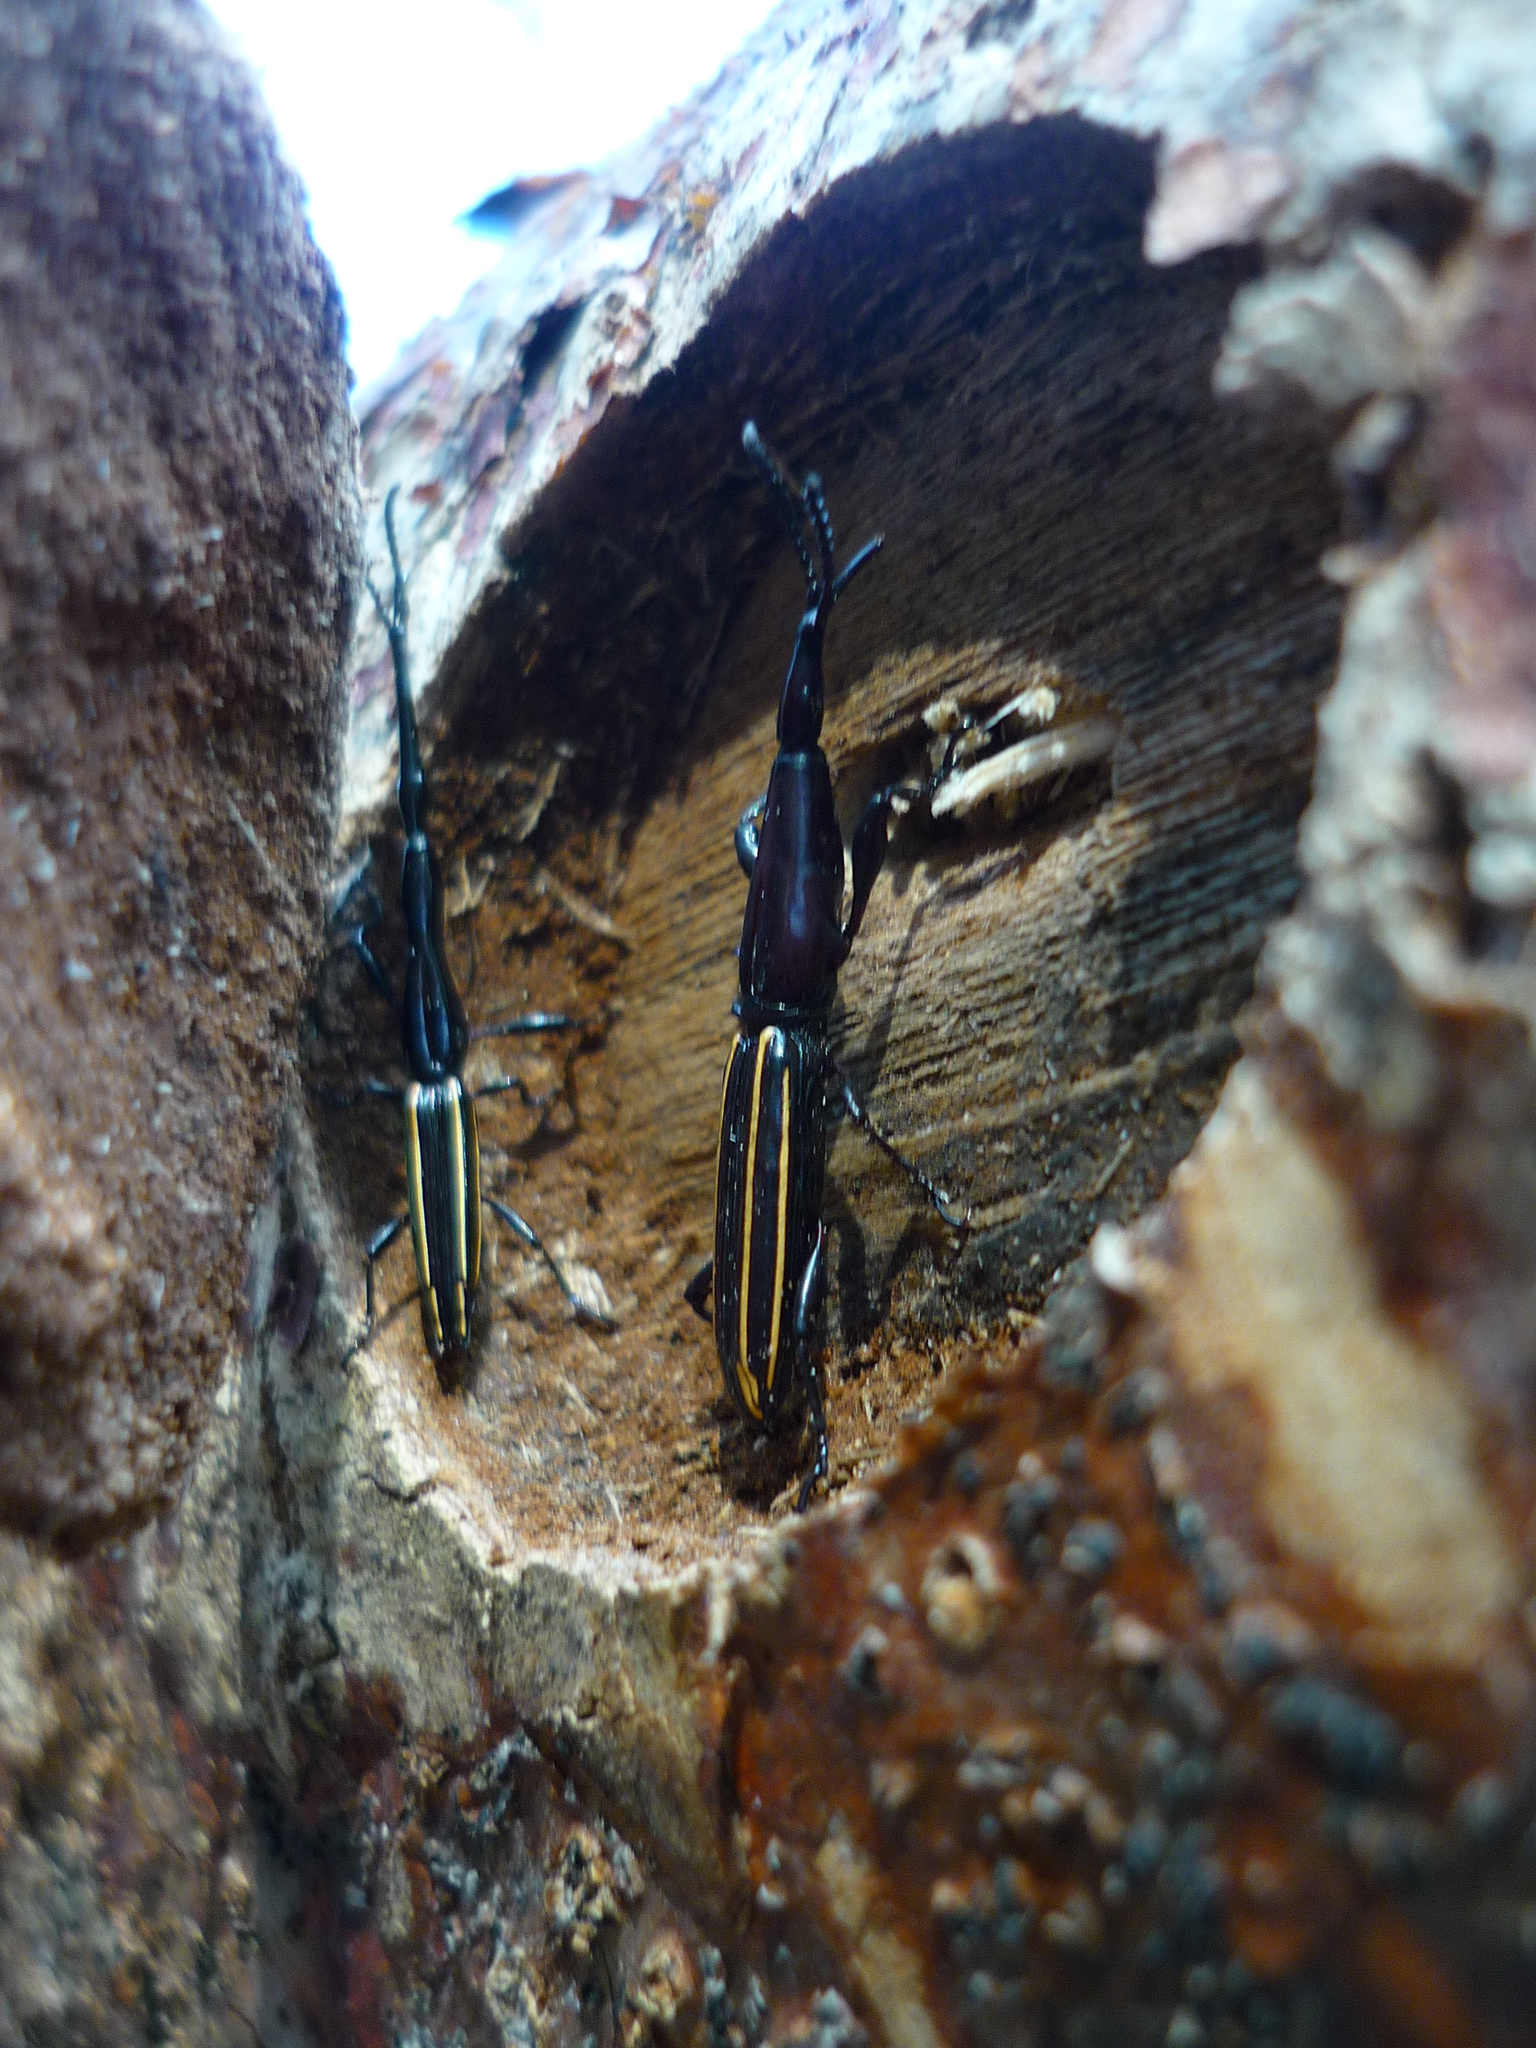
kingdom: Animalia
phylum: Arthropoda
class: Insecta
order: Coleoptera
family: Brentidae
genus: Brentus
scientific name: Brentus anchorago
